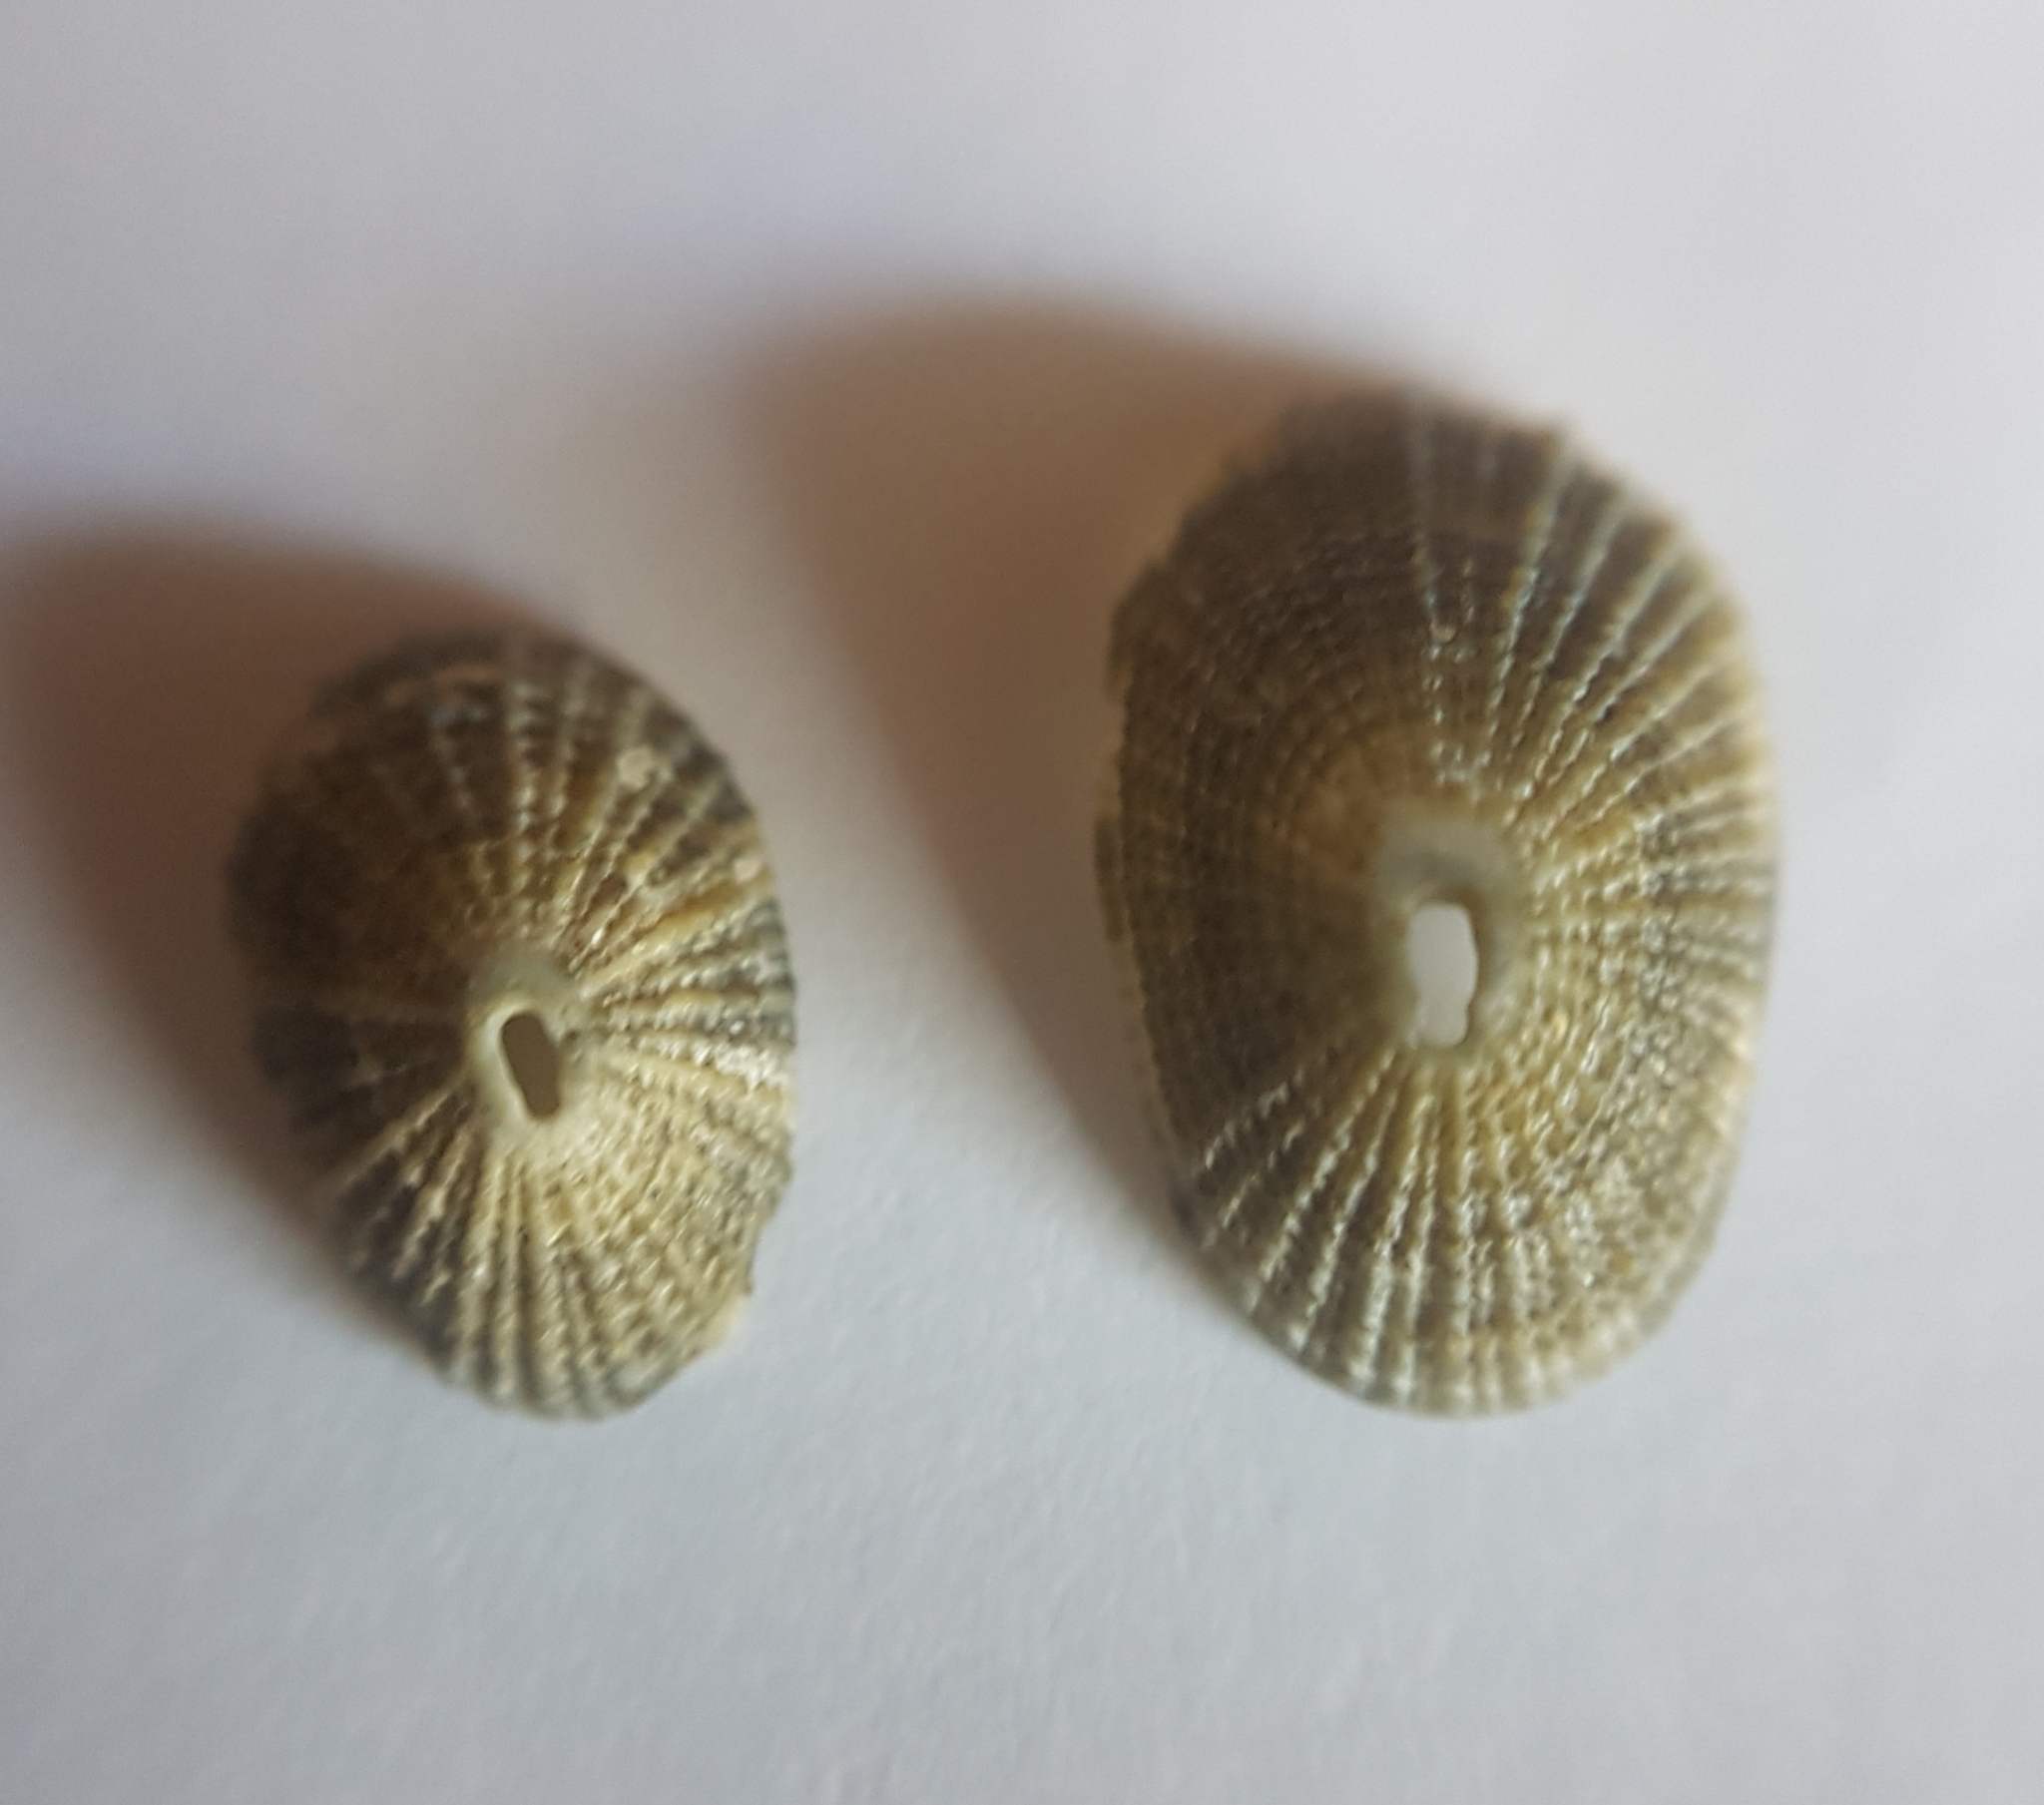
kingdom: Animalia
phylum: Mollusca
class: Gastropoda
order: Lepetellida
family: Fissurellidae
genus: Diodora
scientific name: Diodora gibberula
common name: Humped keyhole limpet
